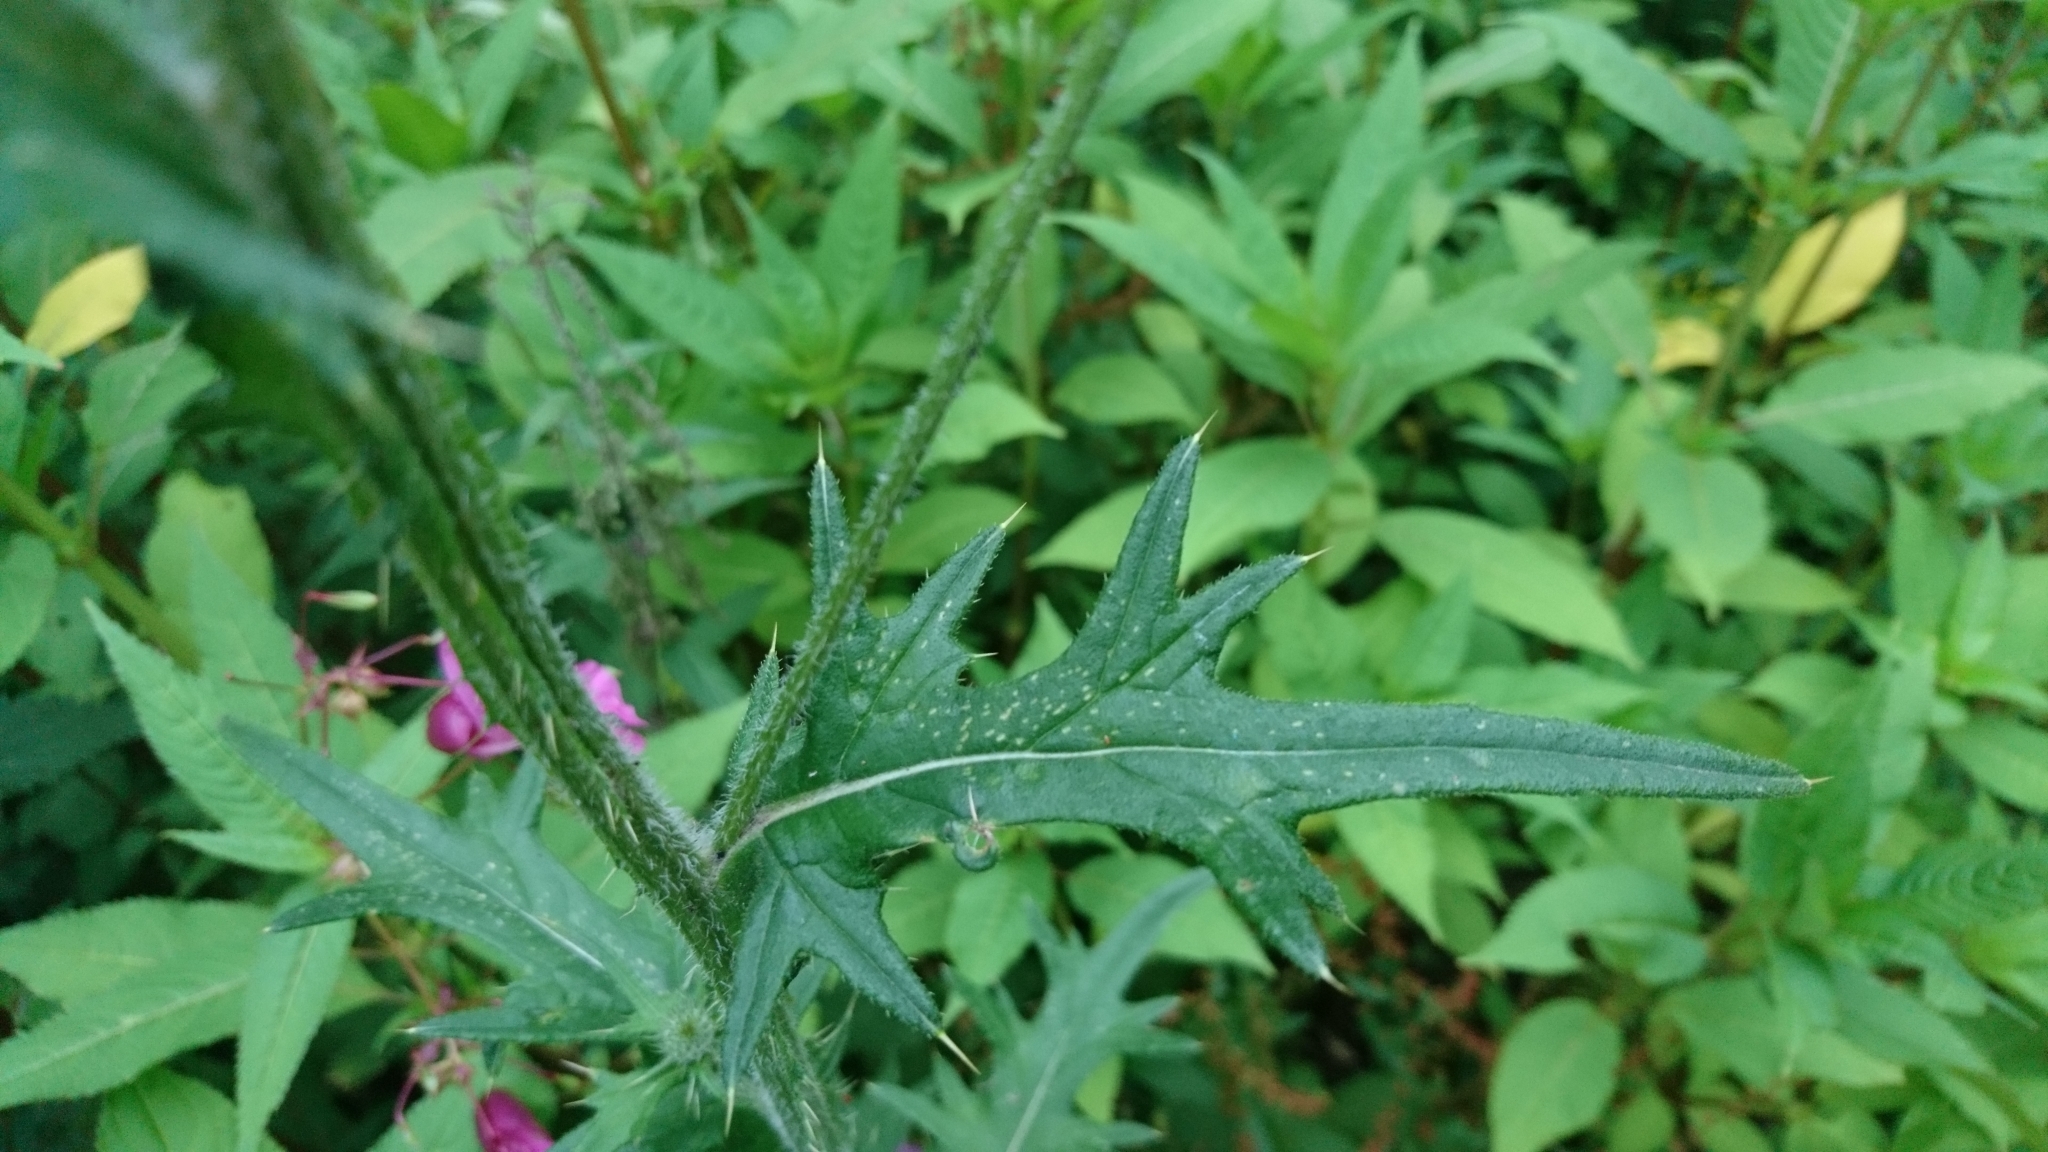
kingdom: Plantae
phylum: Tracheophyta
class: Magnoliopsida
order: Asterales
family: Asteraceae
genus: Cirsium
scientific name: Cirsium vulgare
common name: Bull thistle
